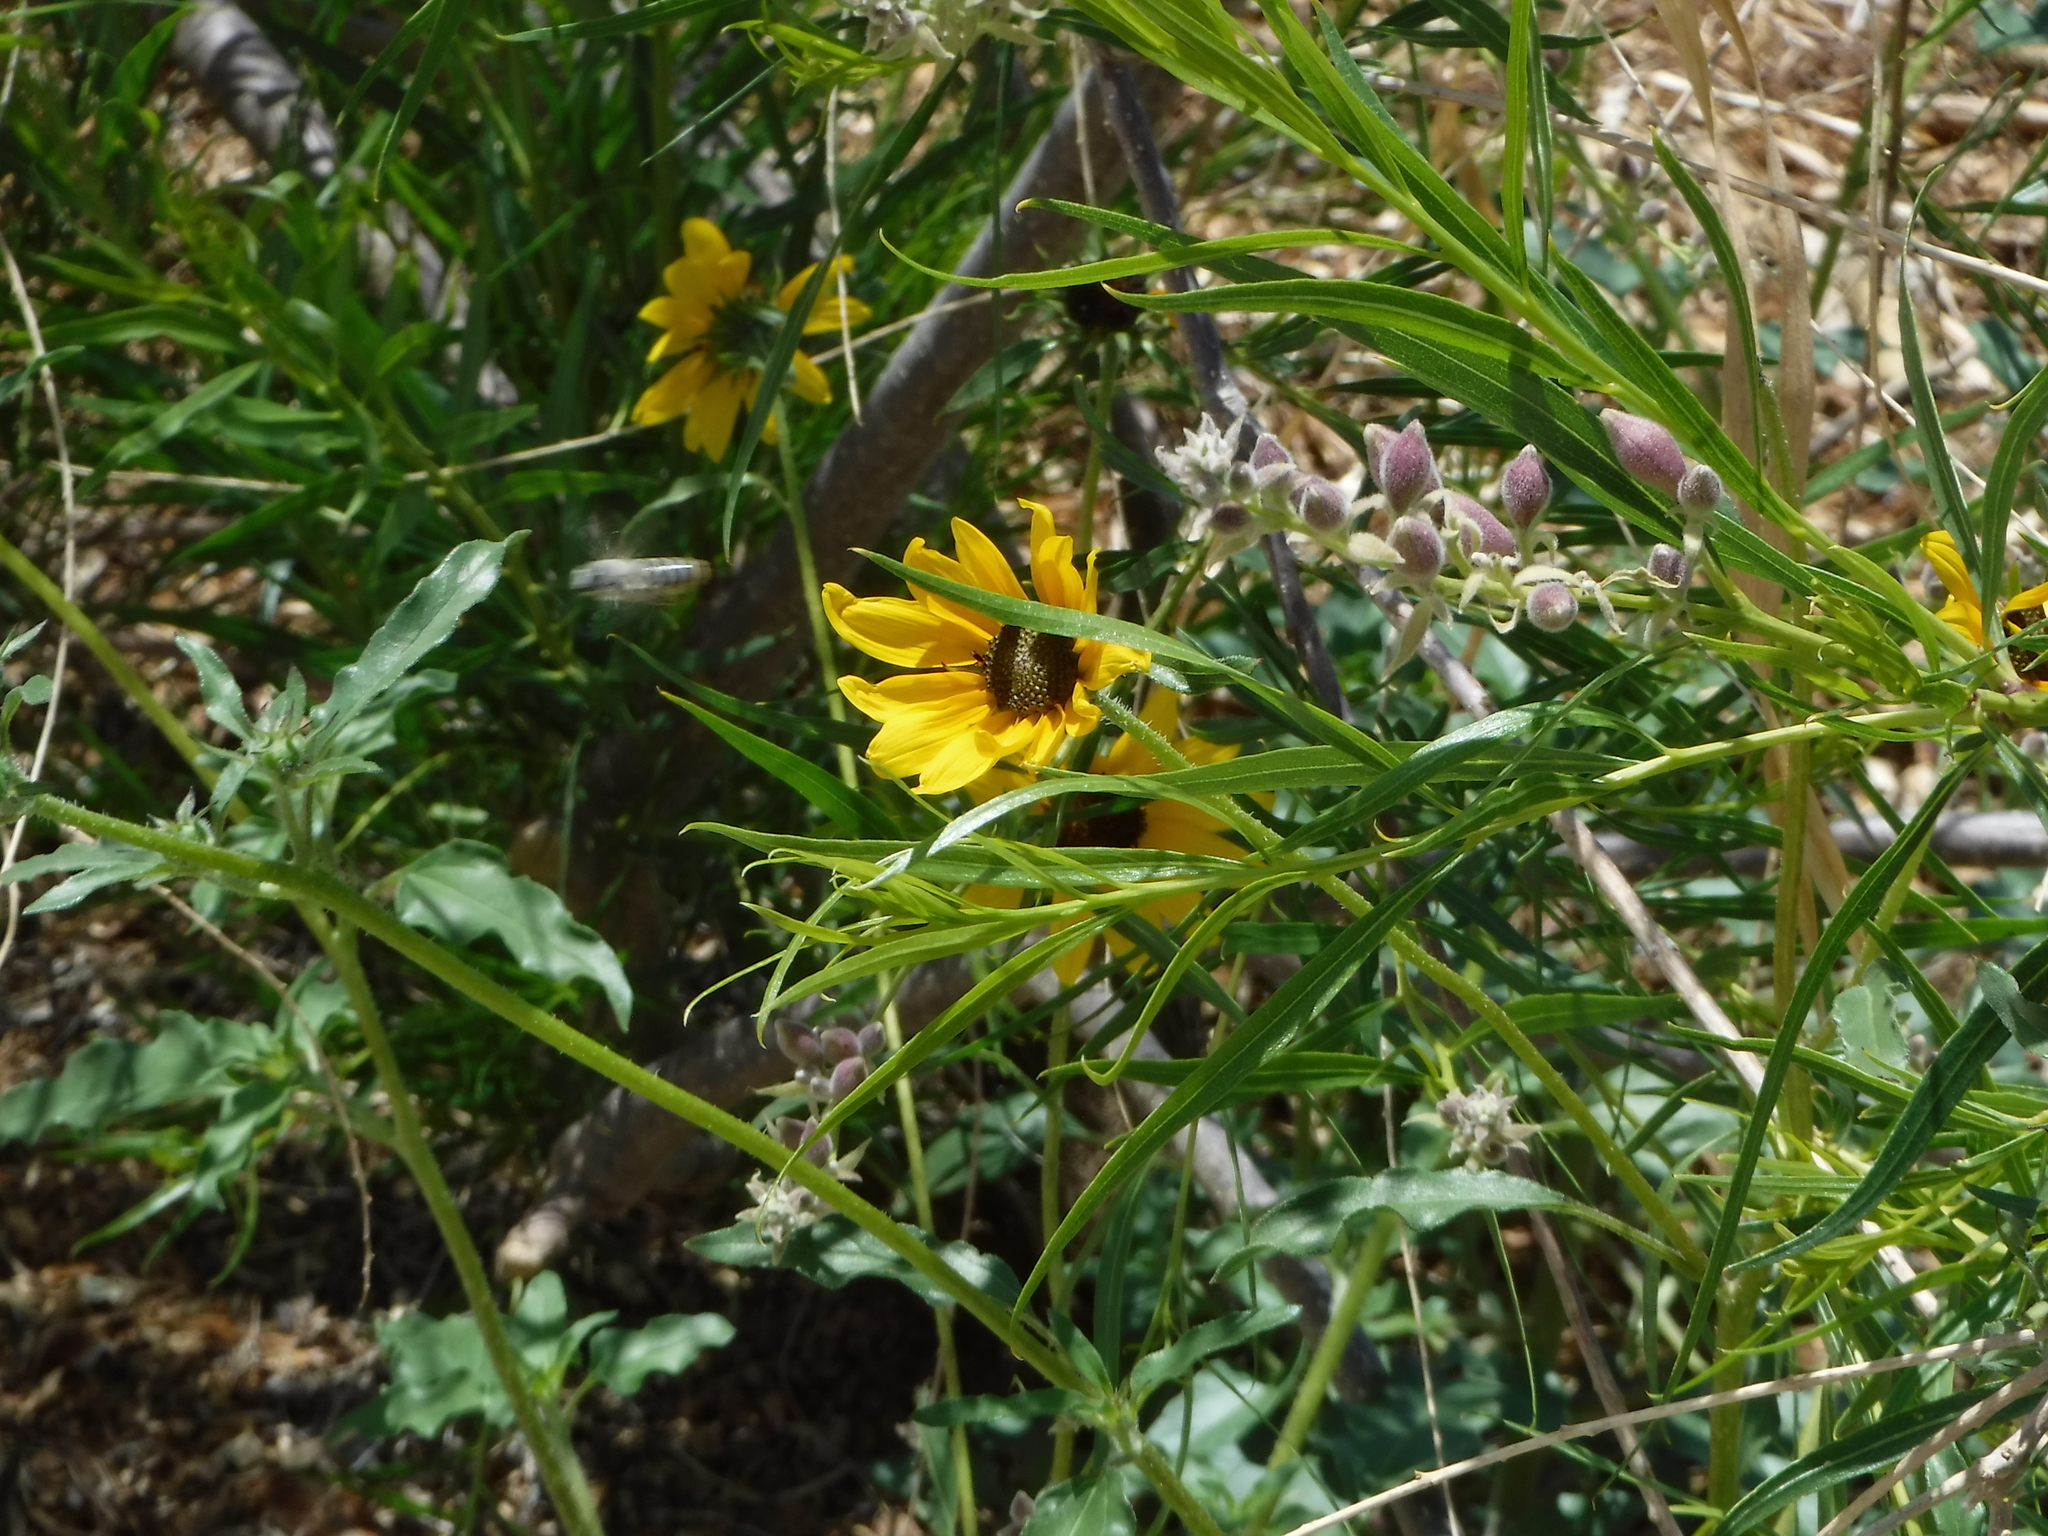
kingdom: Animalia
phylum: Arthropoda
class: Insecta
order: Hymenoptera
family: Megachilidae
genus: Megachile
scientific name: Megachile
